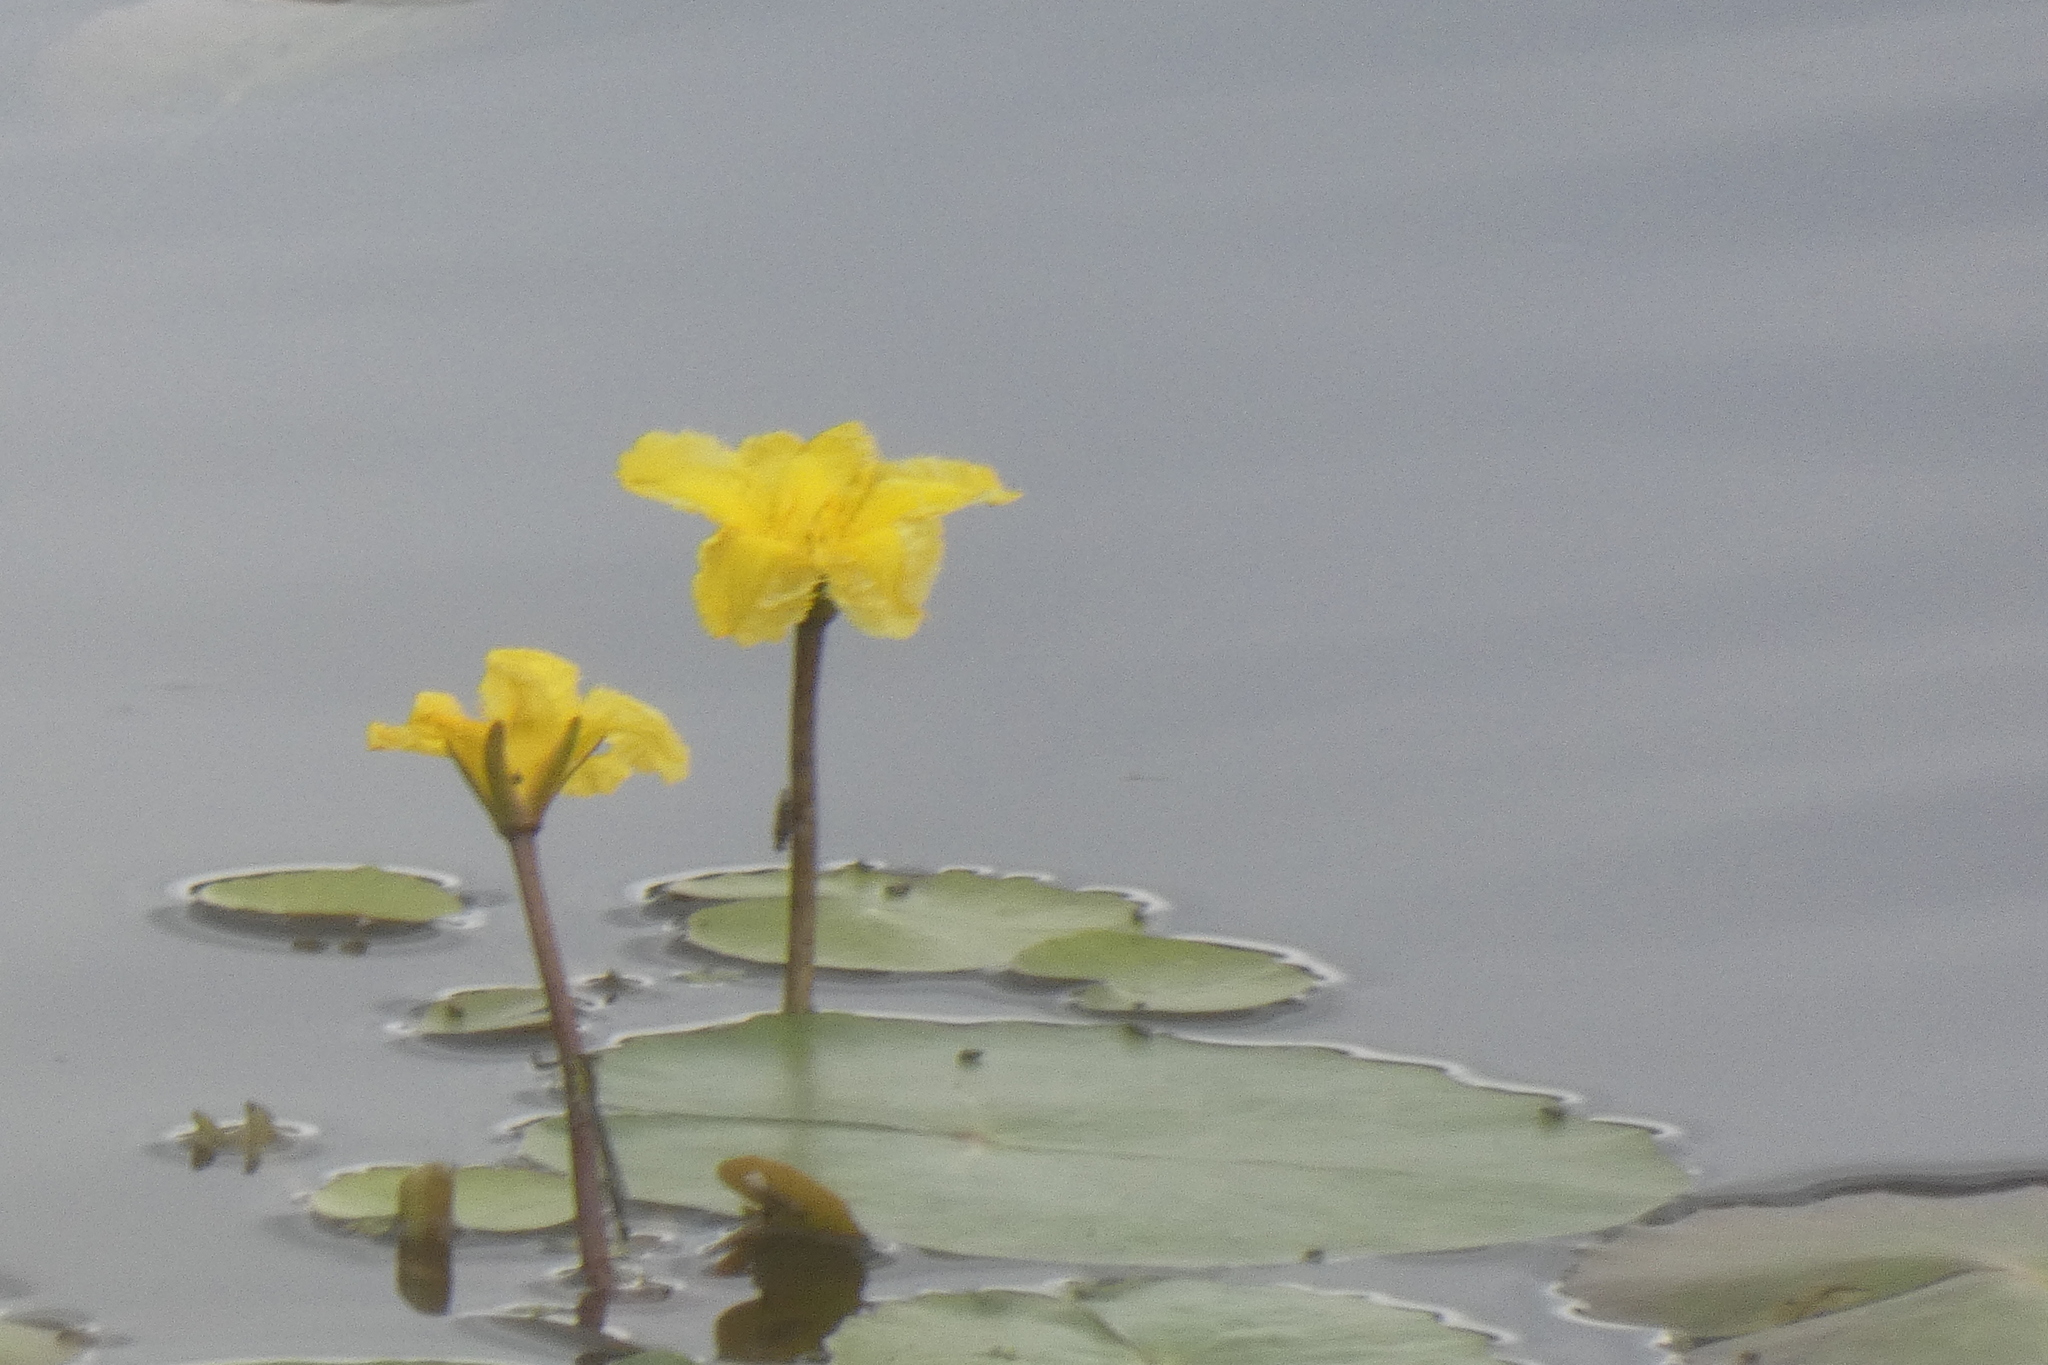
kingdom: Plantae
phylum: Tracheophyta
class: Magnoliopsida
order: Asterales
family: Menyanthaceae
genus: Nymphoides
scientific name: Nymphoides peltata
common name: Fringed water-lily
